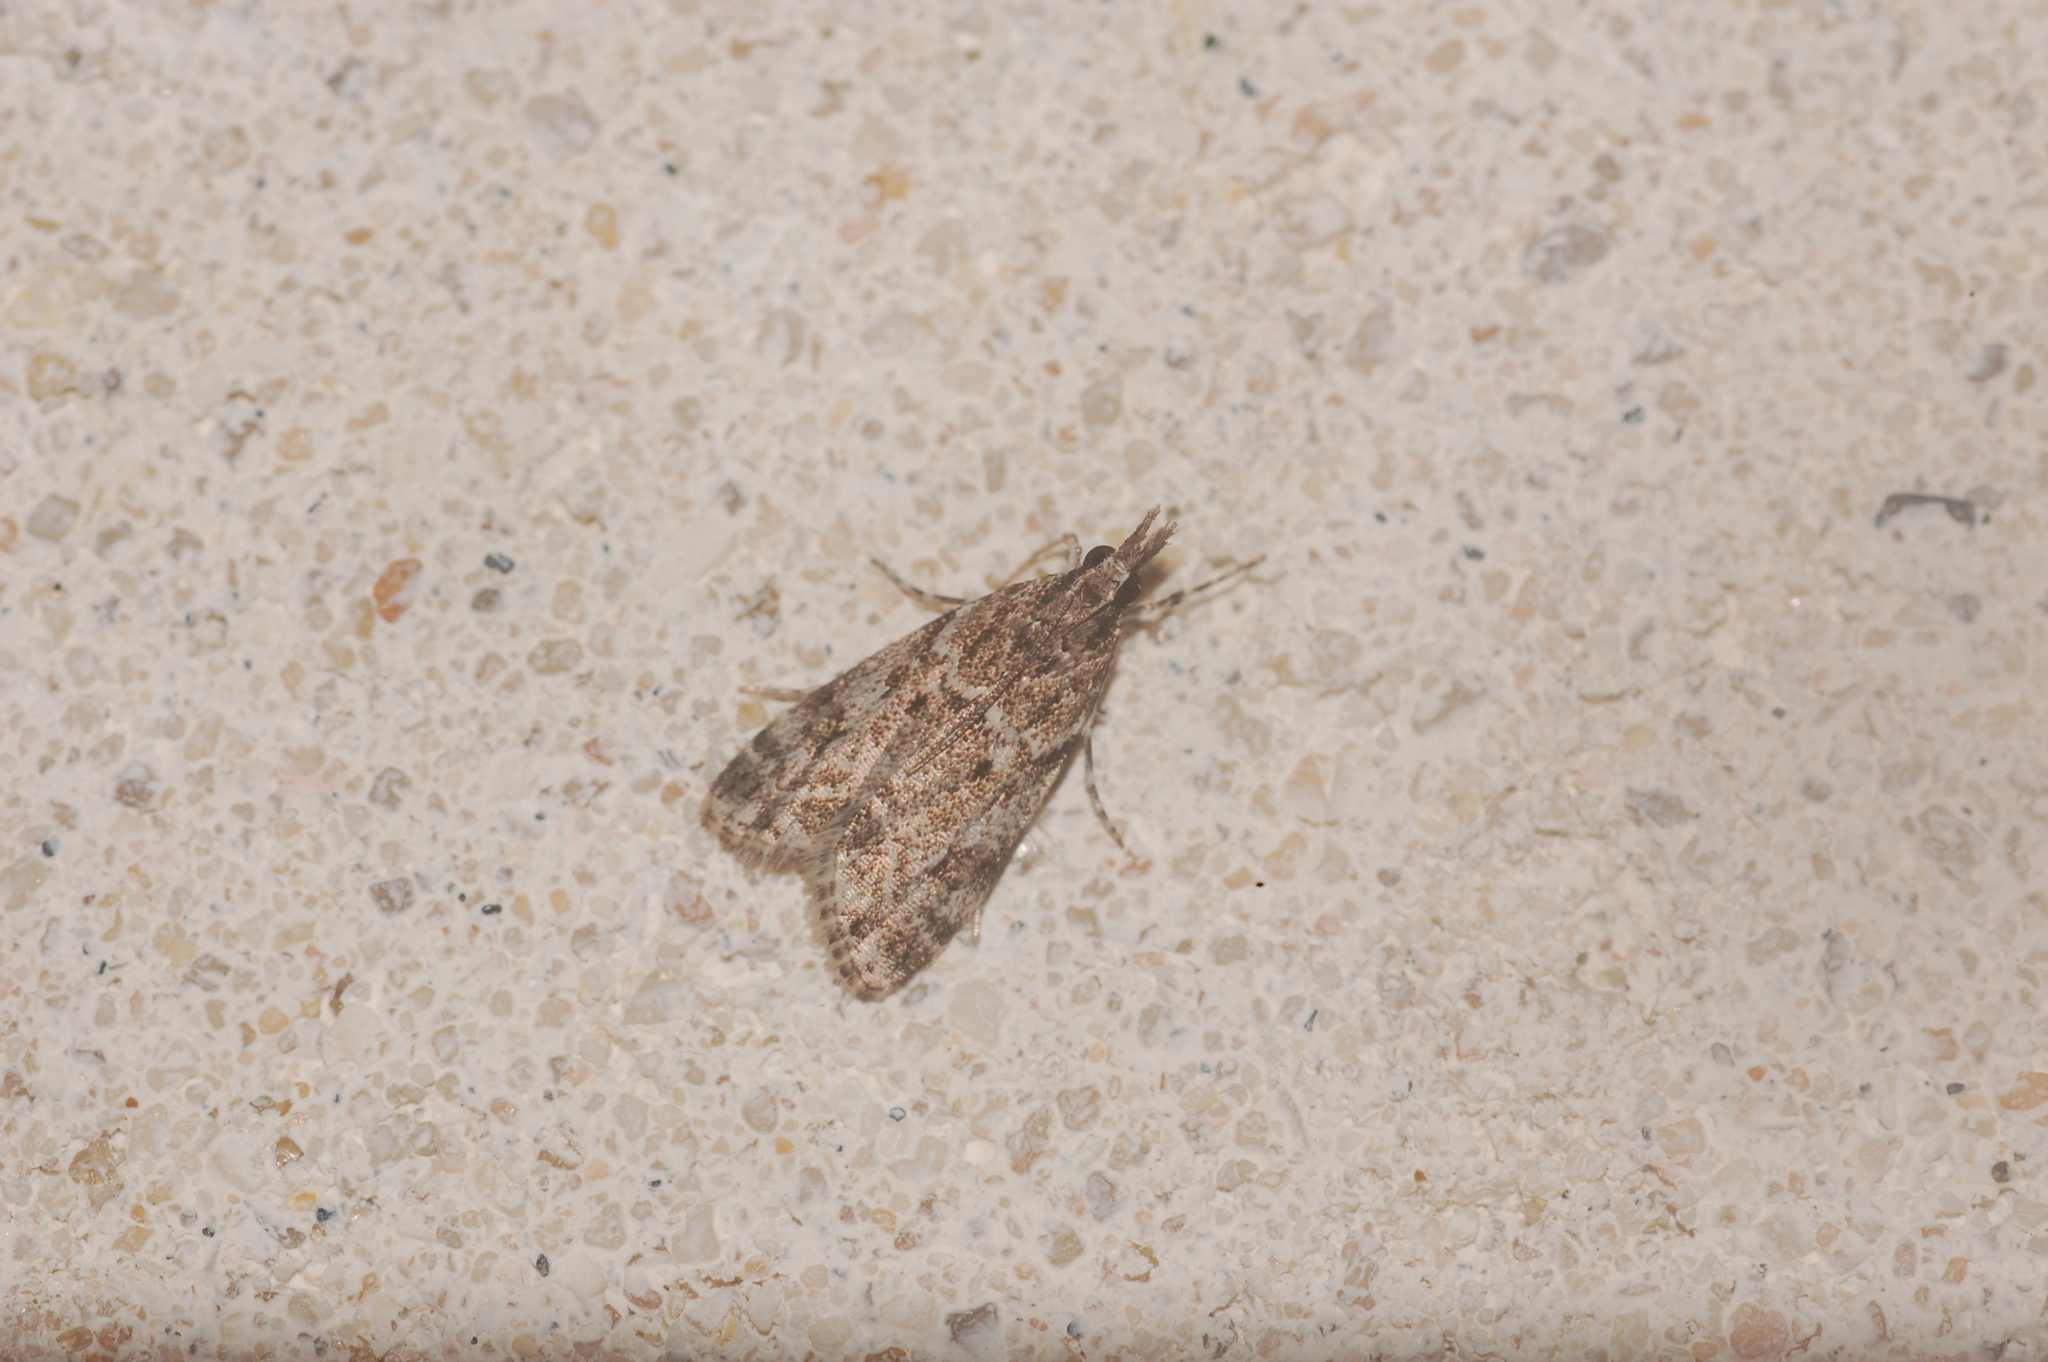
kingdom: Animalia
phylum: Arthropoda
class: Insecta
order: Lepidoptera
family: Crambidae
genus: Eudonia
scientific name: Eudonia heterosalis
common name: Mcdunnough's eudonia
